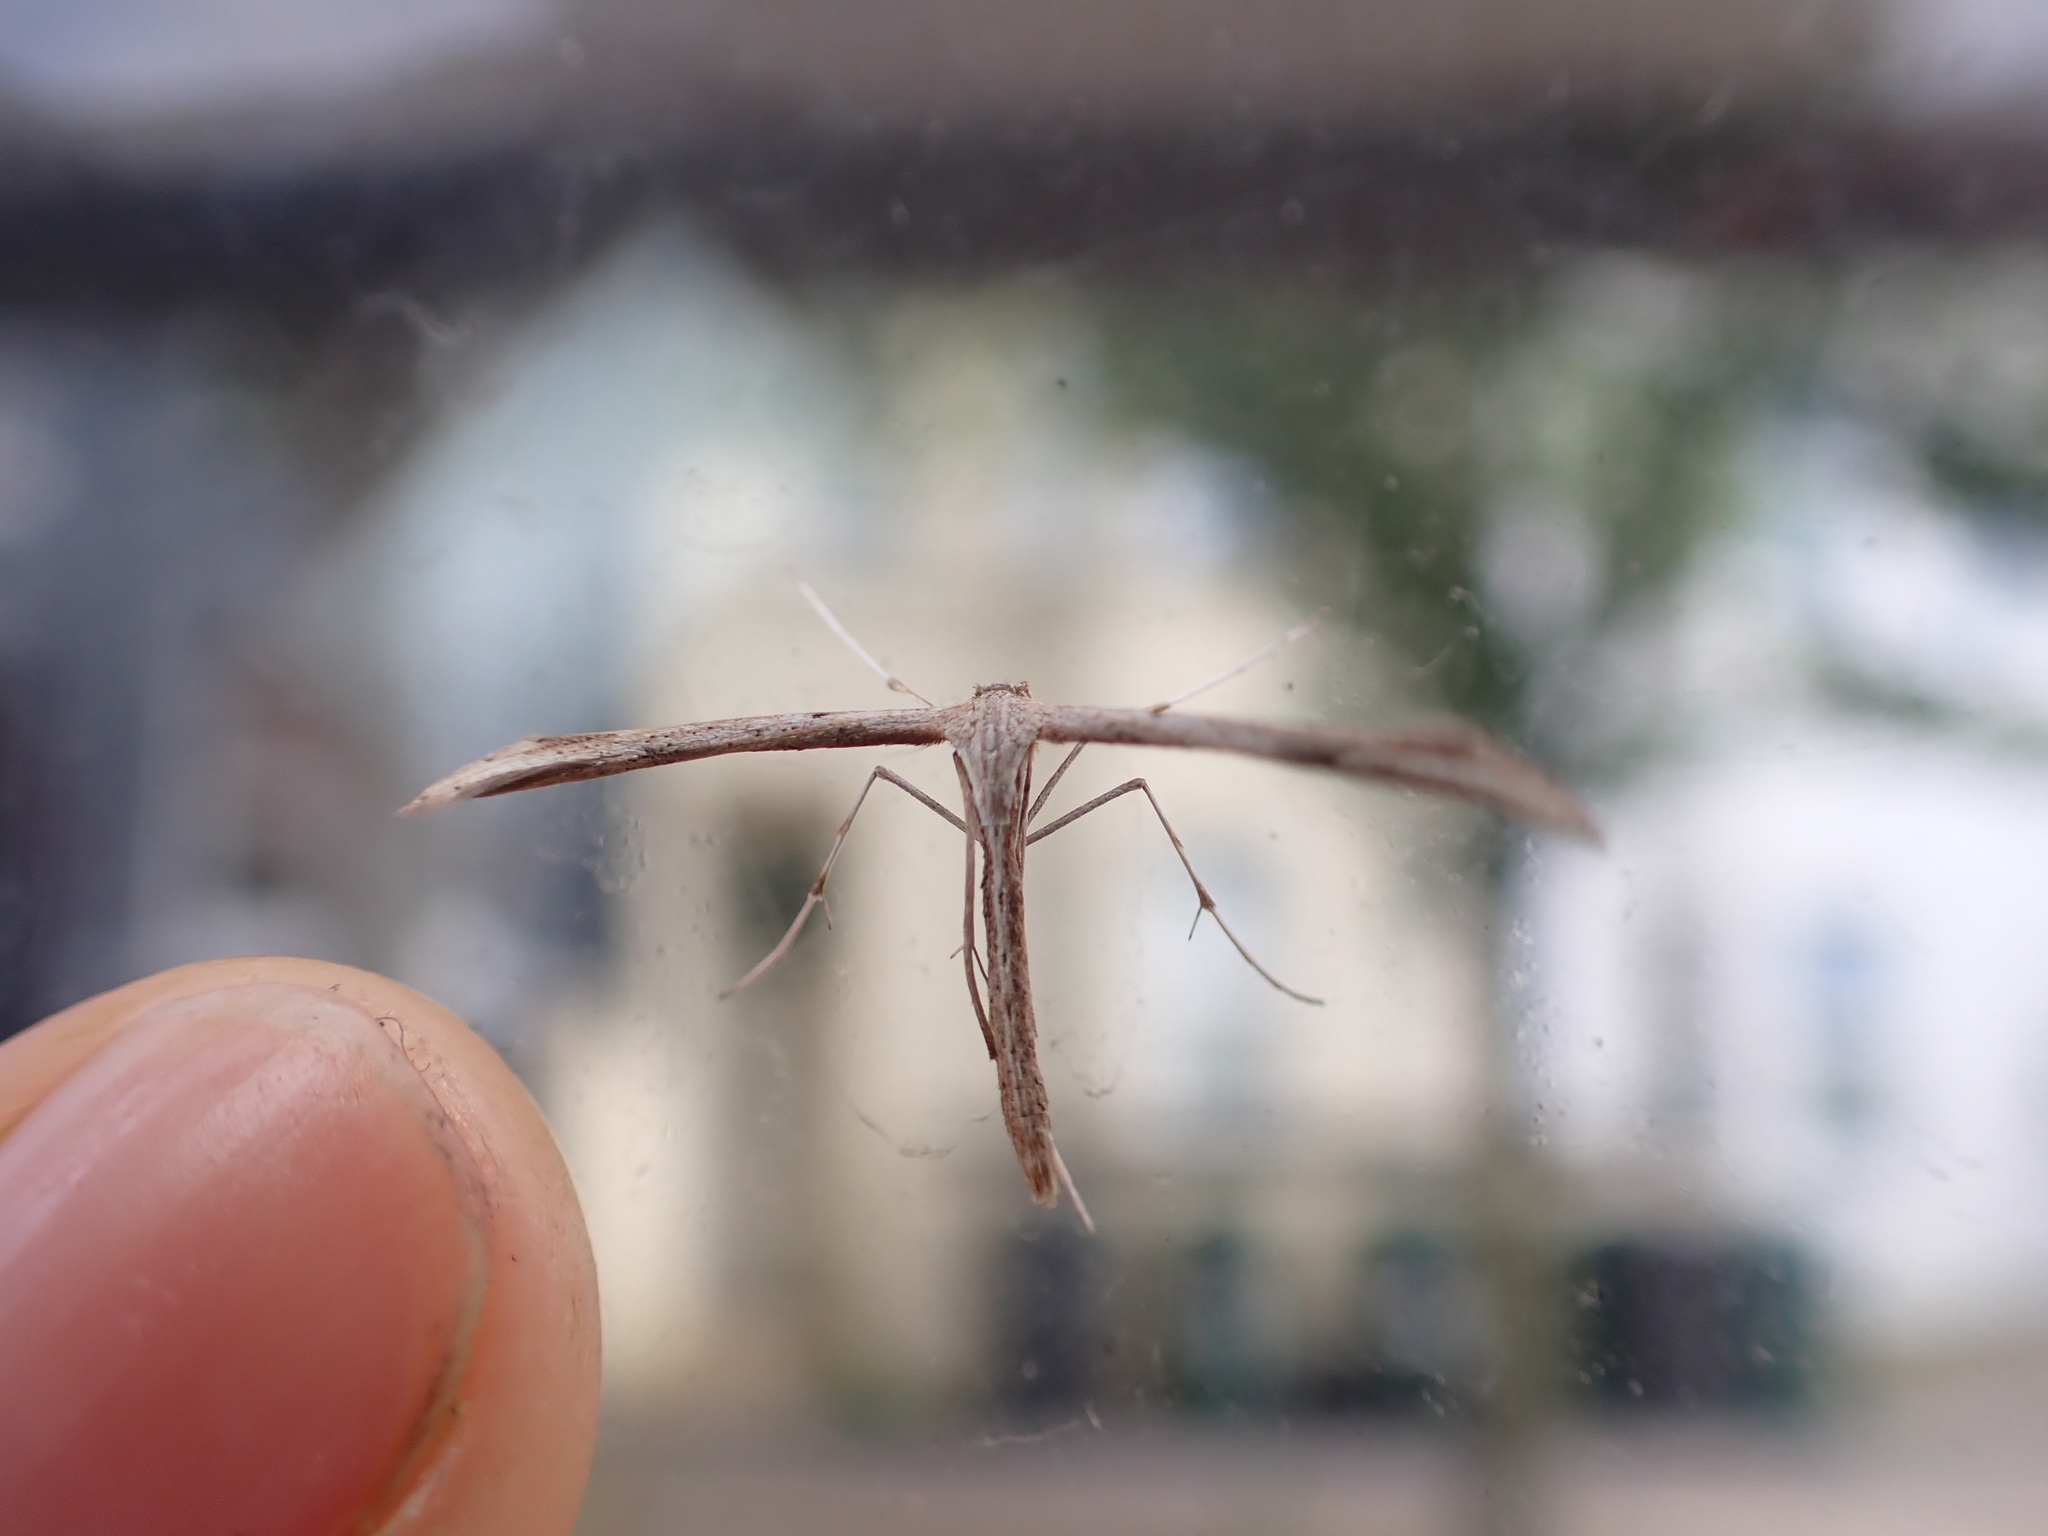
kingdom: Animalia
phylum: Arthropoda
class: Insecta
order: Lepidoptera
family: Pterophoridae
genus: Emmelina
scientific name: Emmelina monodactyla
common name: Common plume
